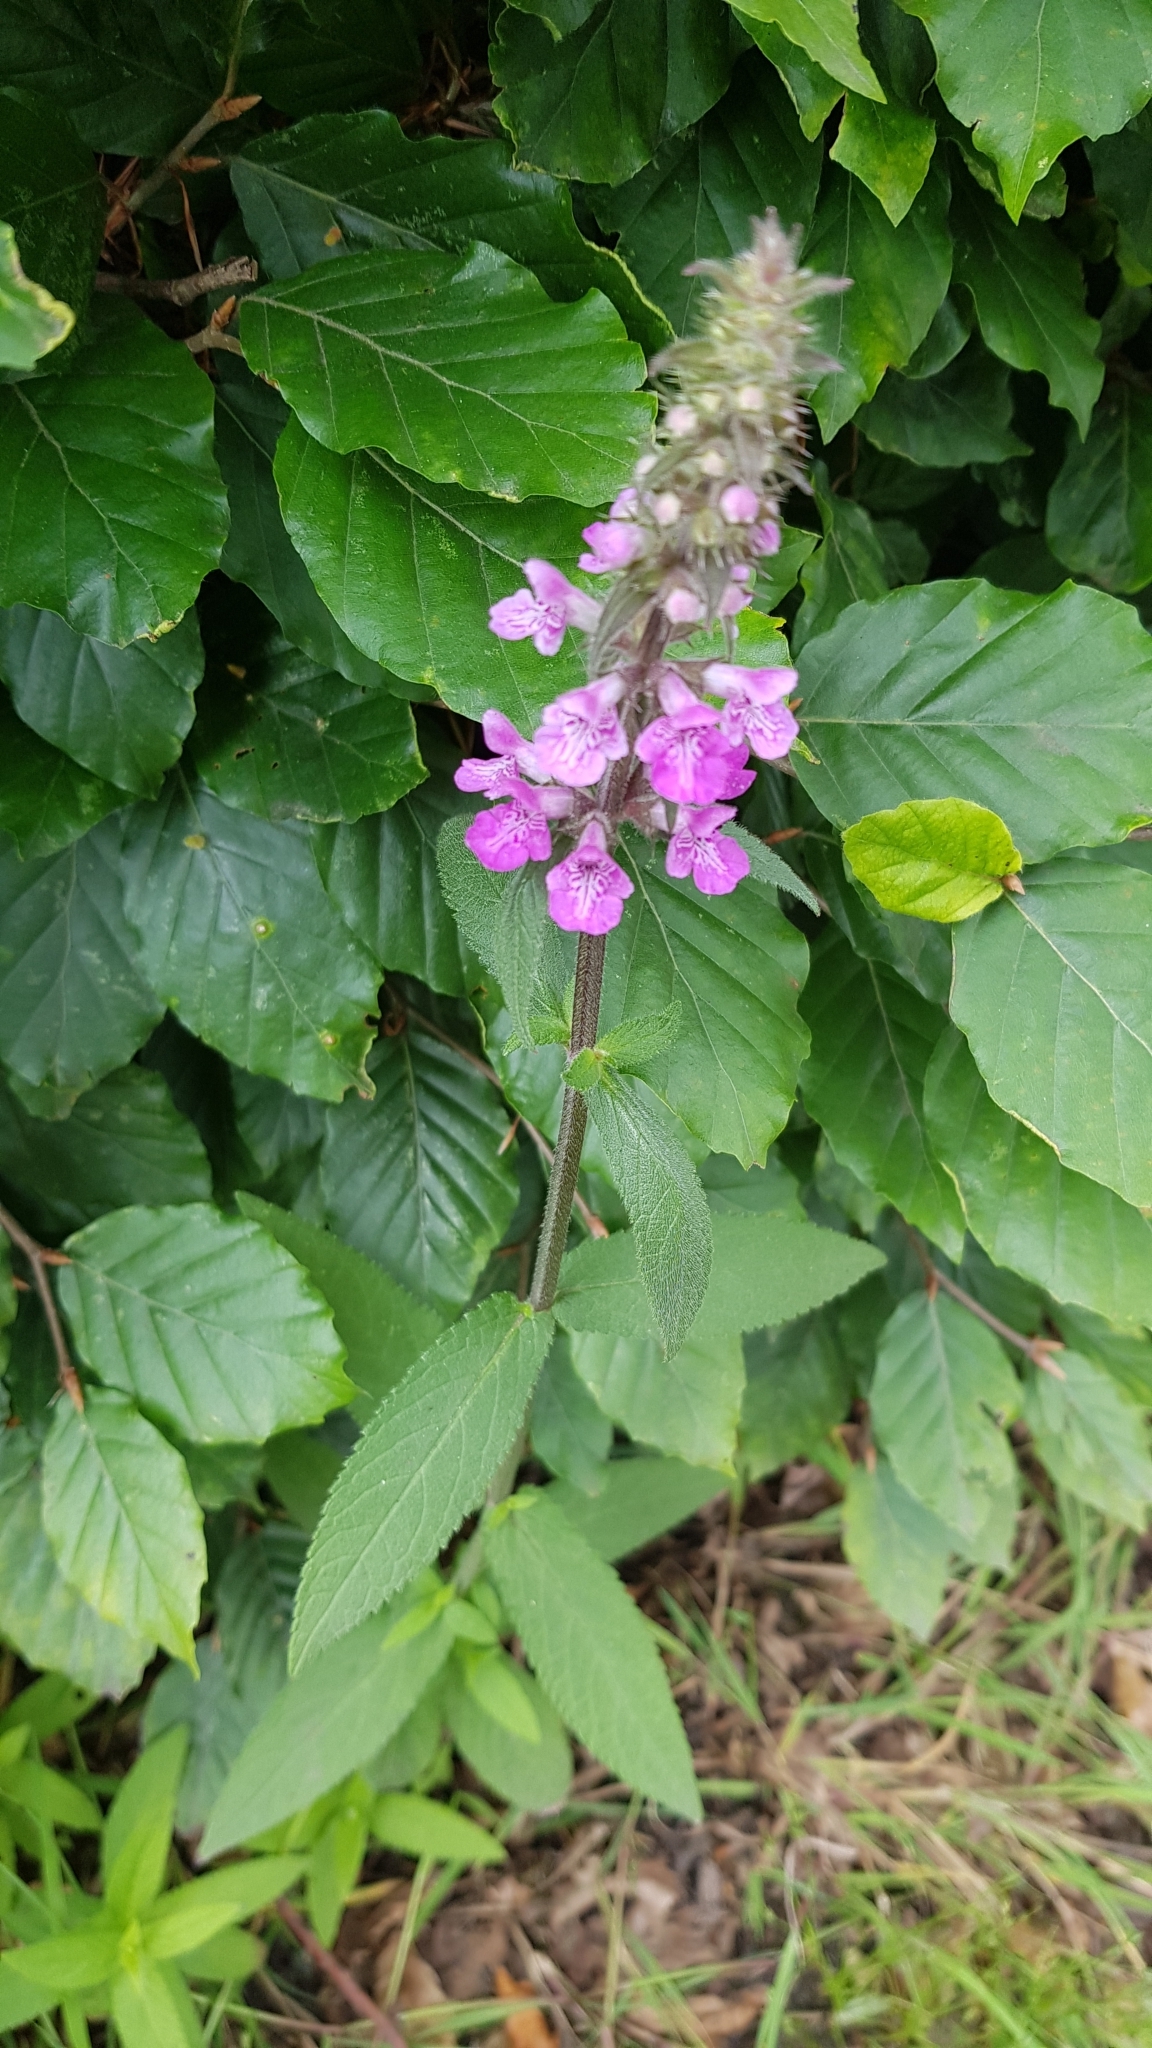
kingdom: Plantae
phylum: Tracheophyta
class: Magnoliopsida
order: Lamiales
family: Lamiaceae
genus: Stachys
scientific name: Stachys palustris
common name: Marsh woundwort
